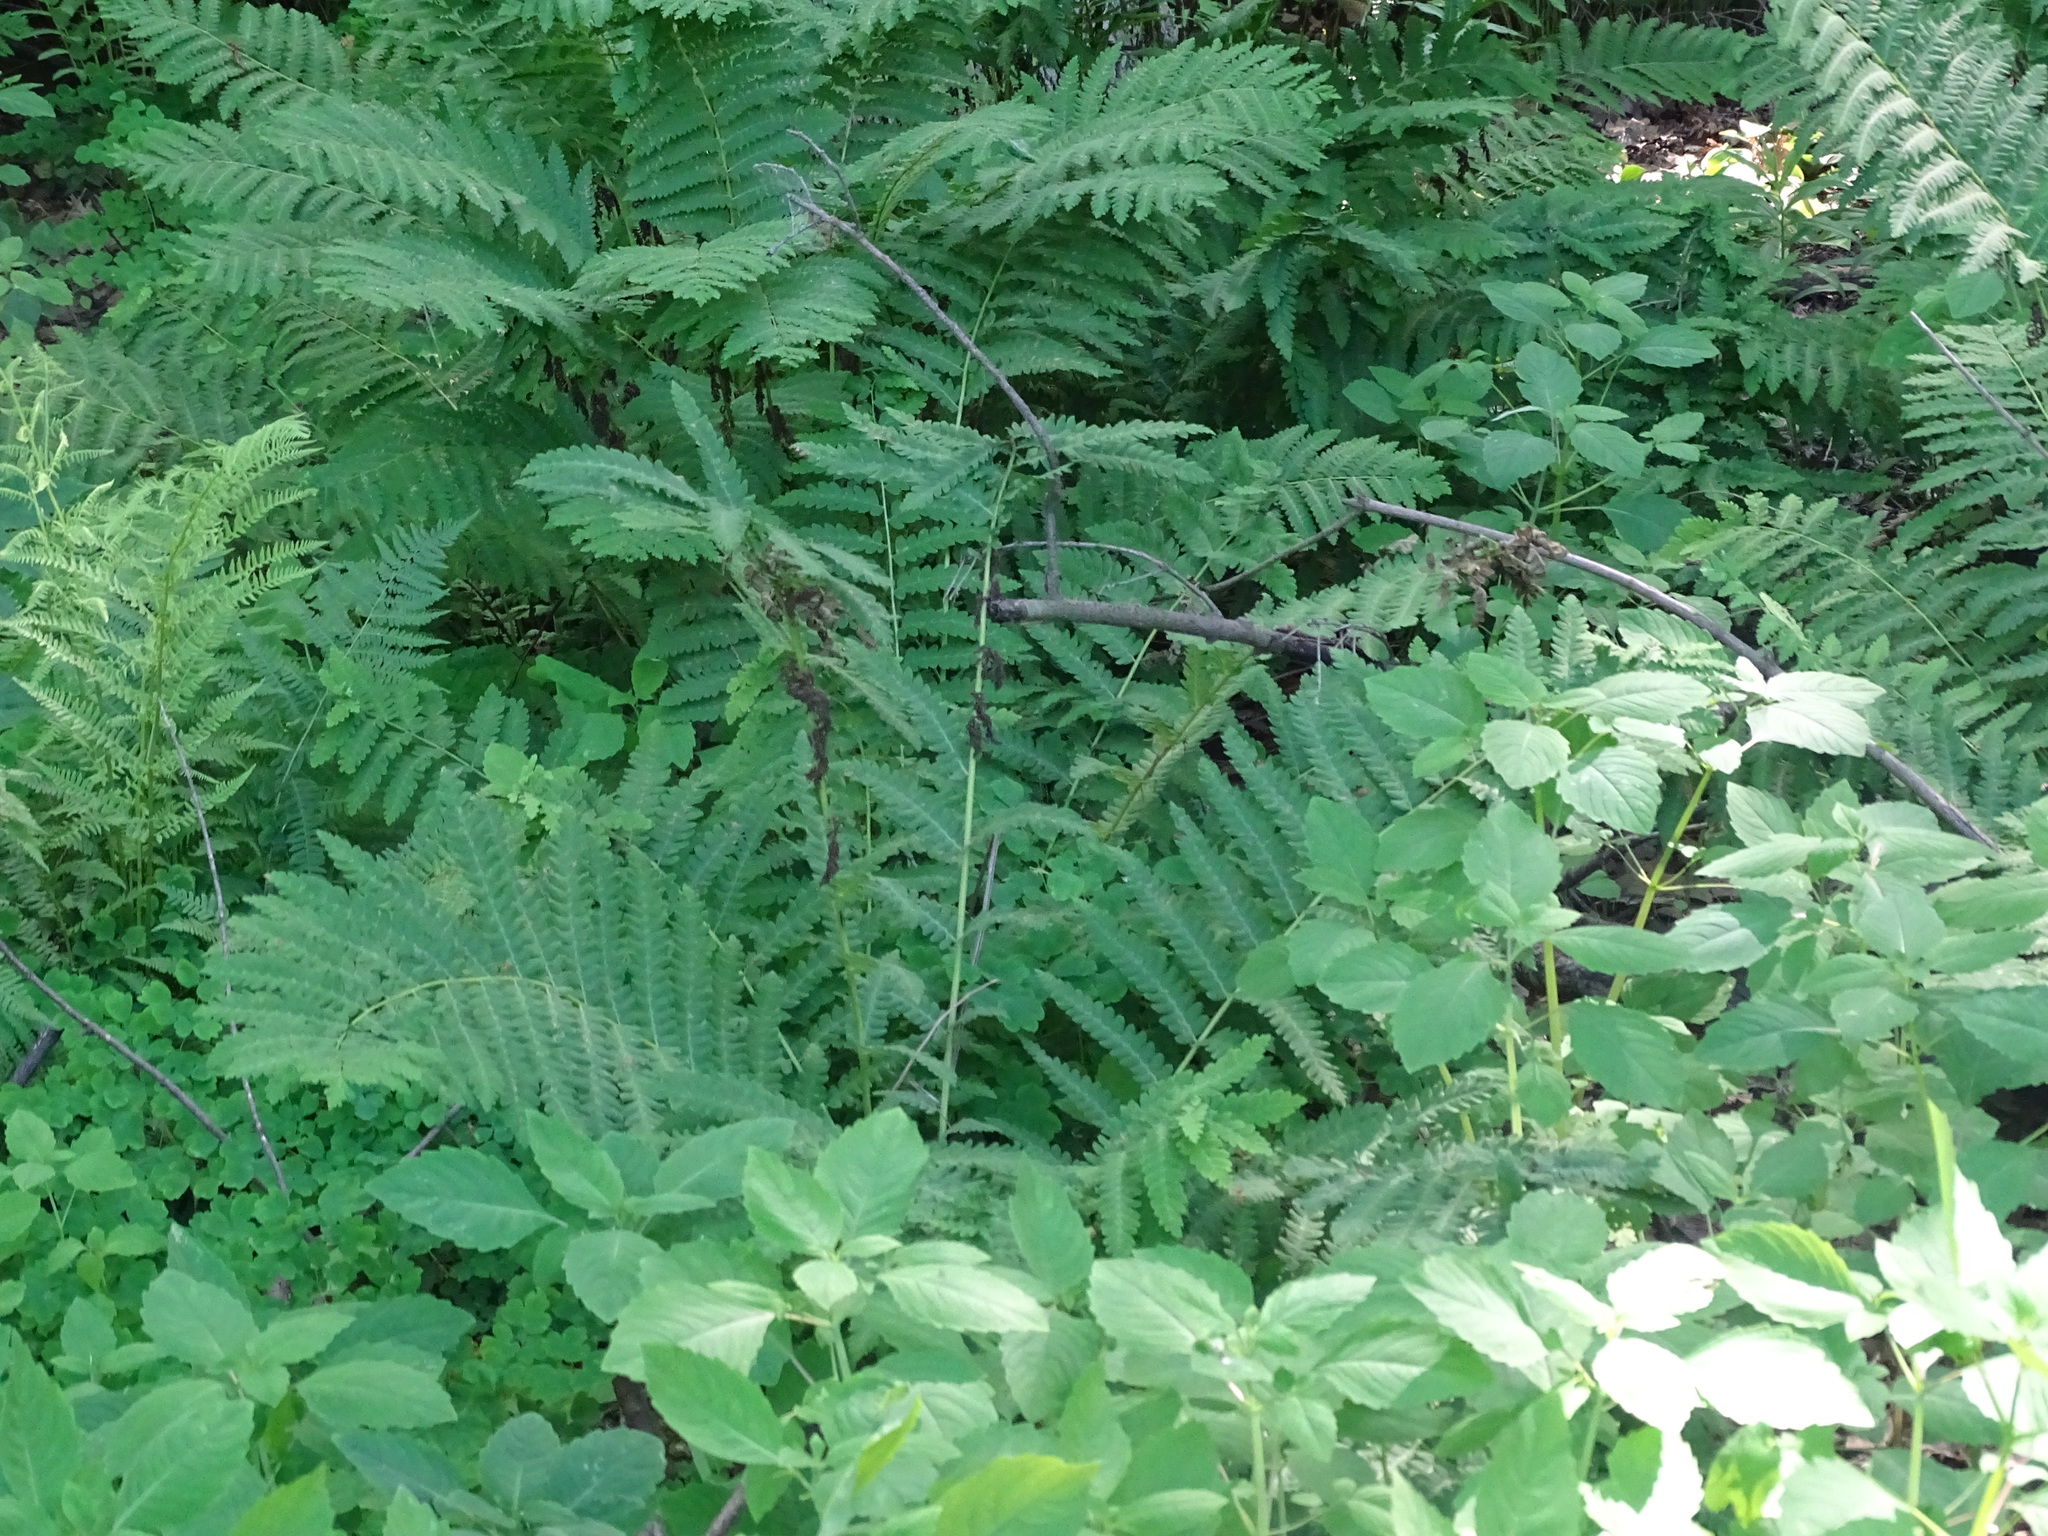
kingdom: Plantae
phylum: Tracheophyta
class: Polypodiopsida
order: Osmundales
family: Osmundaceae
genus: Claytosmunda
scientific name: Claytosmunda claytoniana
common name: Clayton's fern
